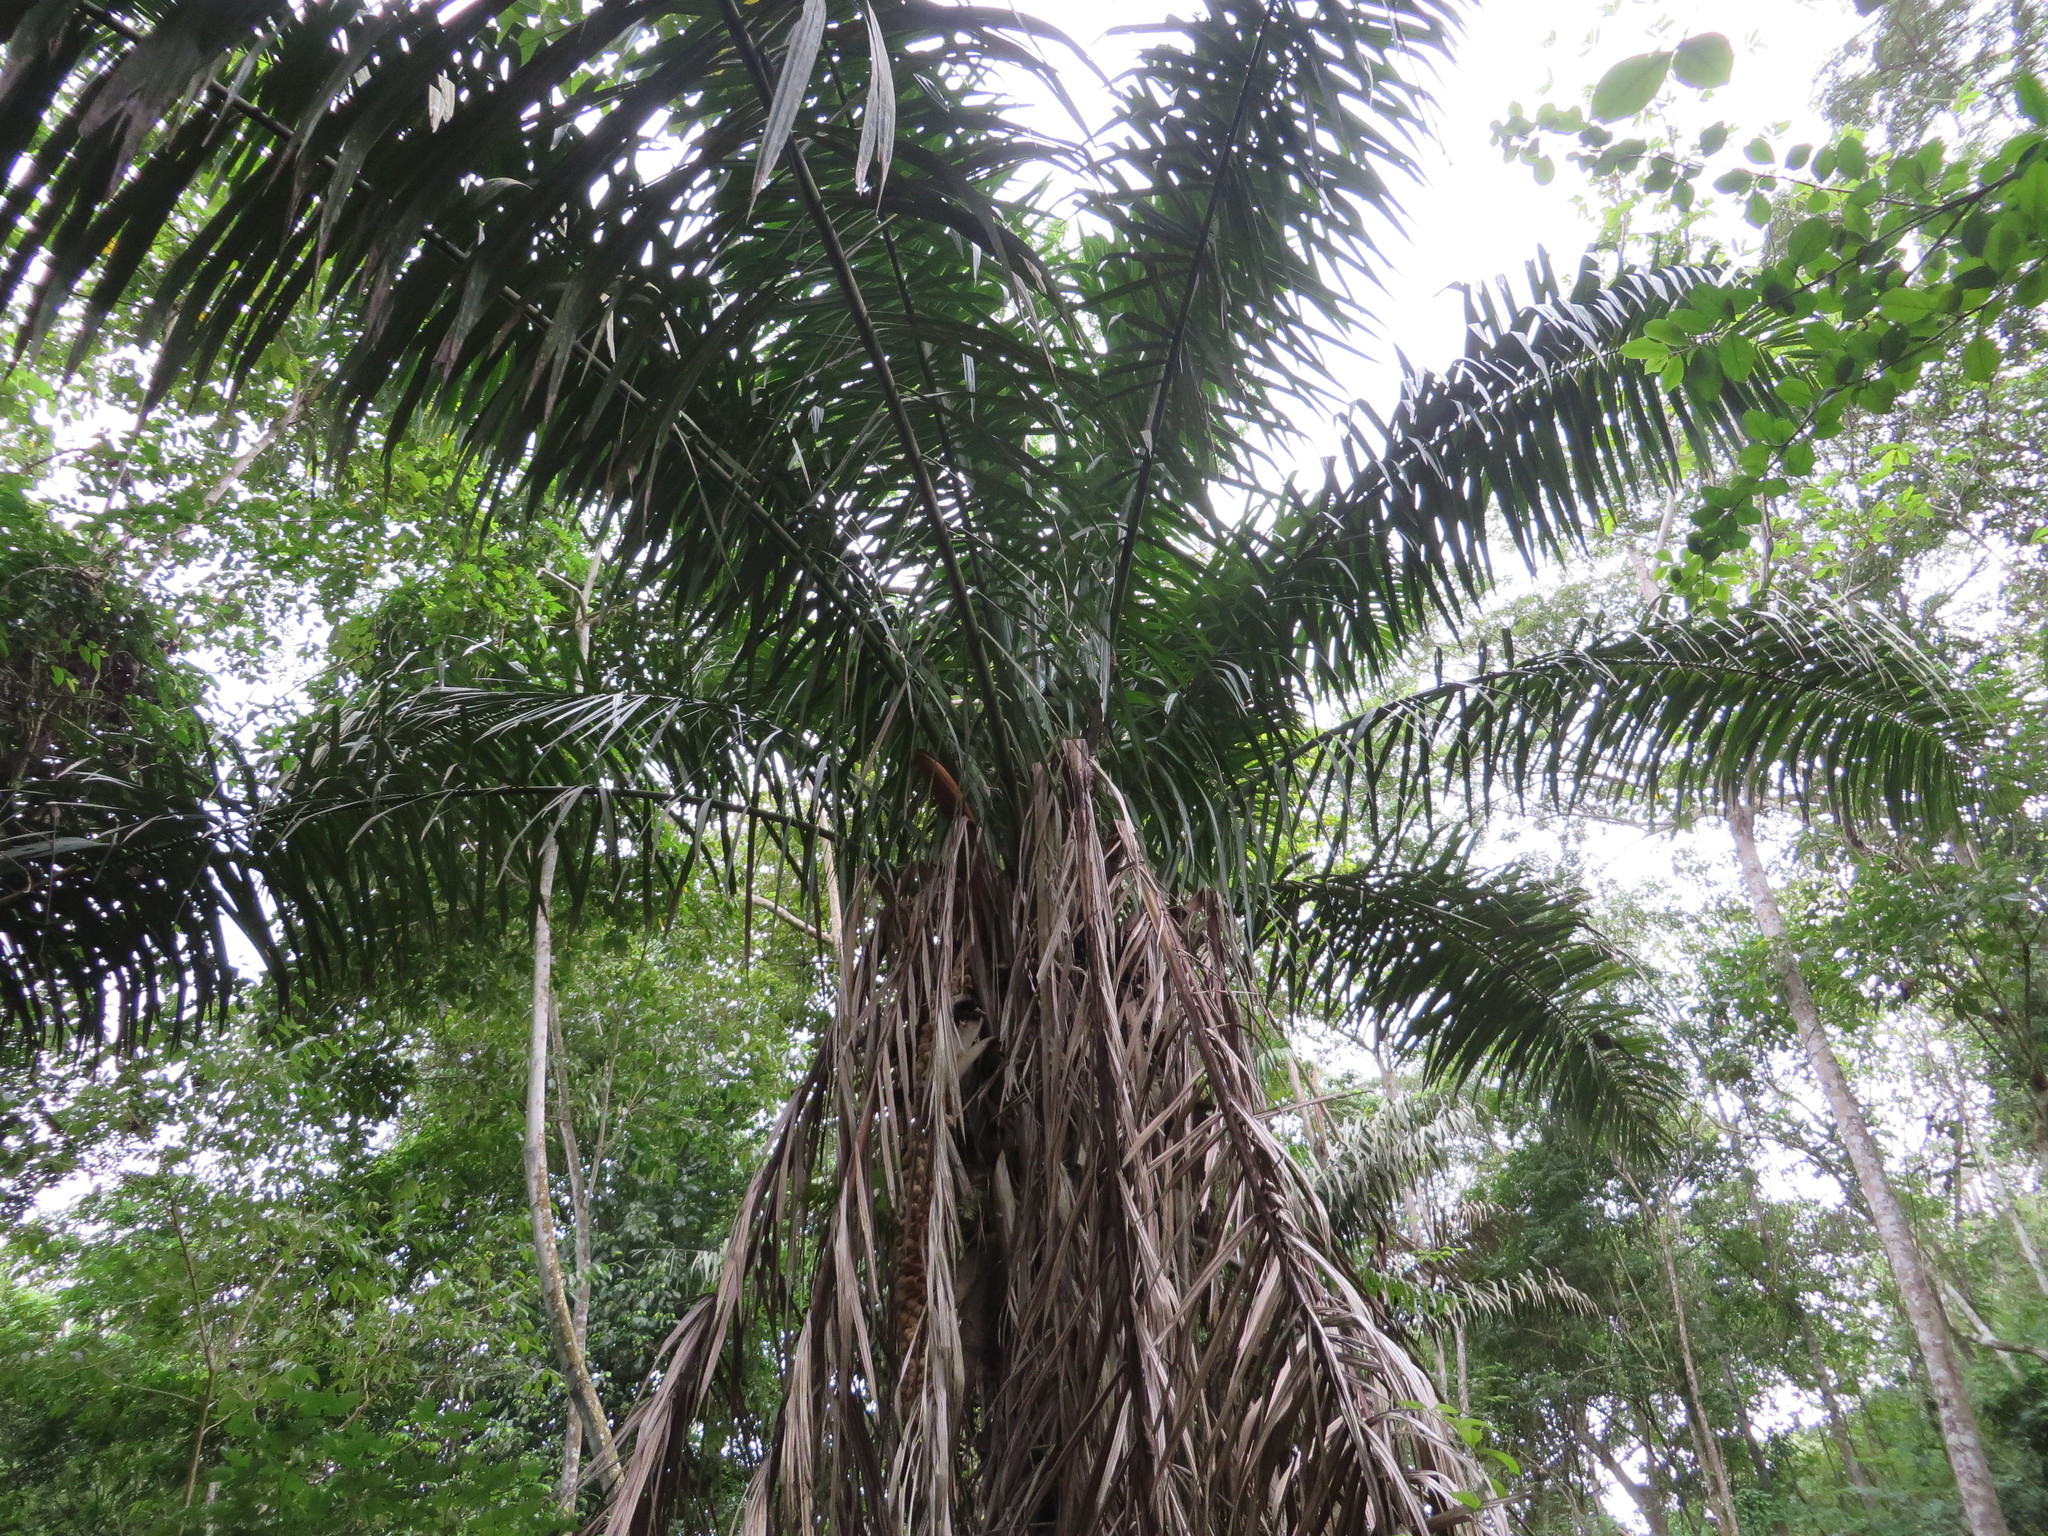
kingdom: Plantae
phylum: Tracheophyta
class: Liliopsida
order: Arecales
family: Arecaceae
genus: Phytelephas
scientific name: Phytelephas aequatorialis
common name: Ivory palm
